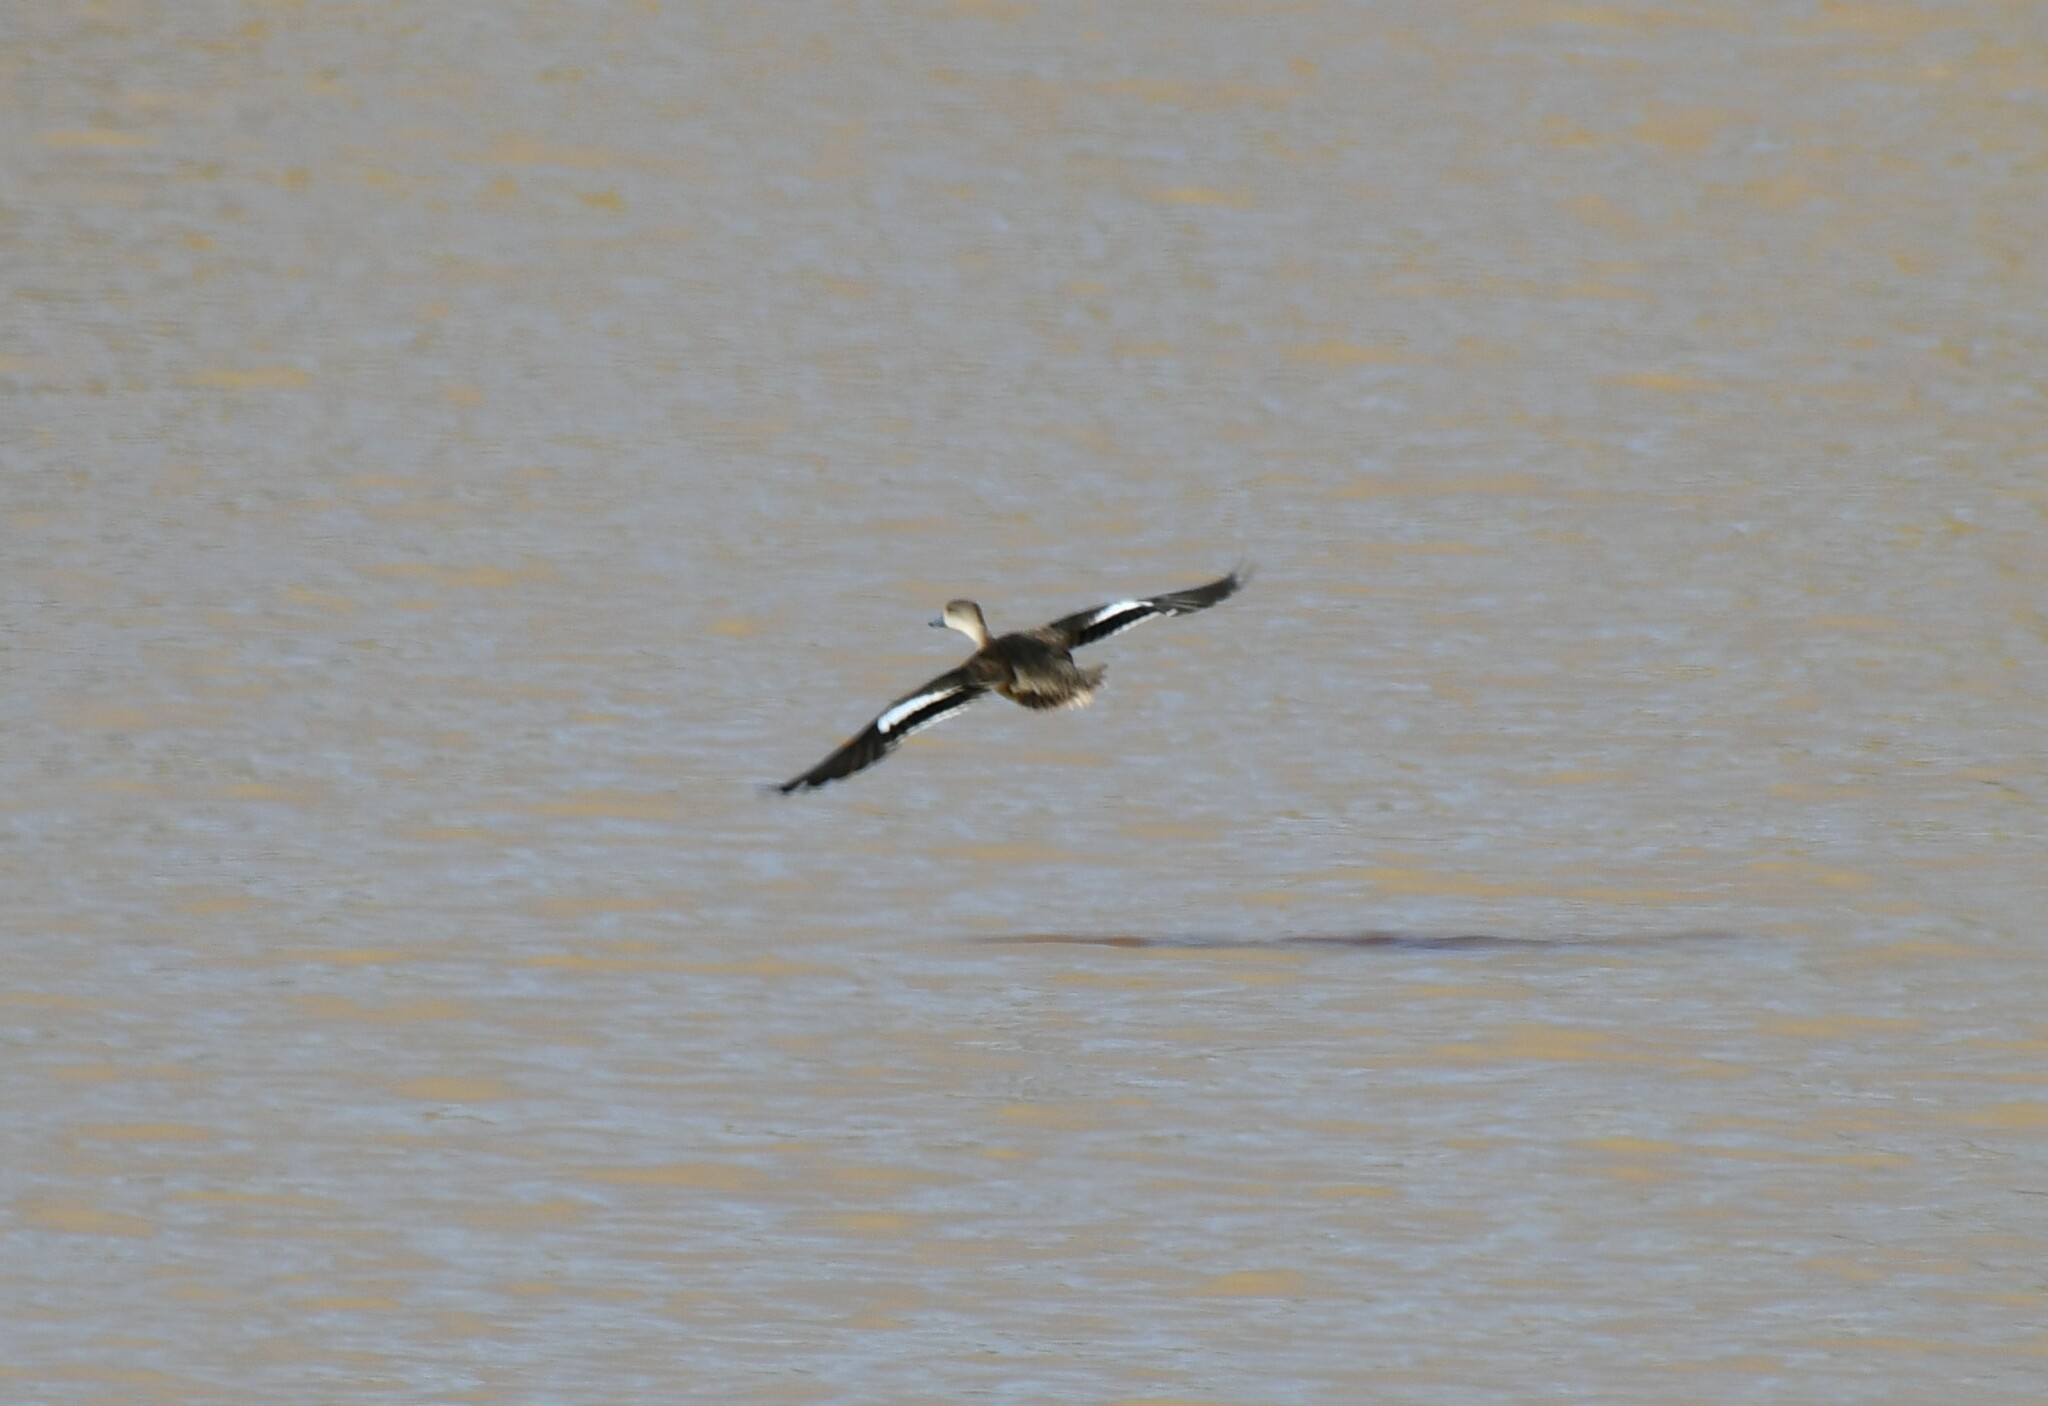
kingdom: Animalia
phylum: Chordata
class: Aves
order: Anseriformes
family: Anatidae
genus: Anas
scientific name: Anas gracilis
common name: Grey teal
